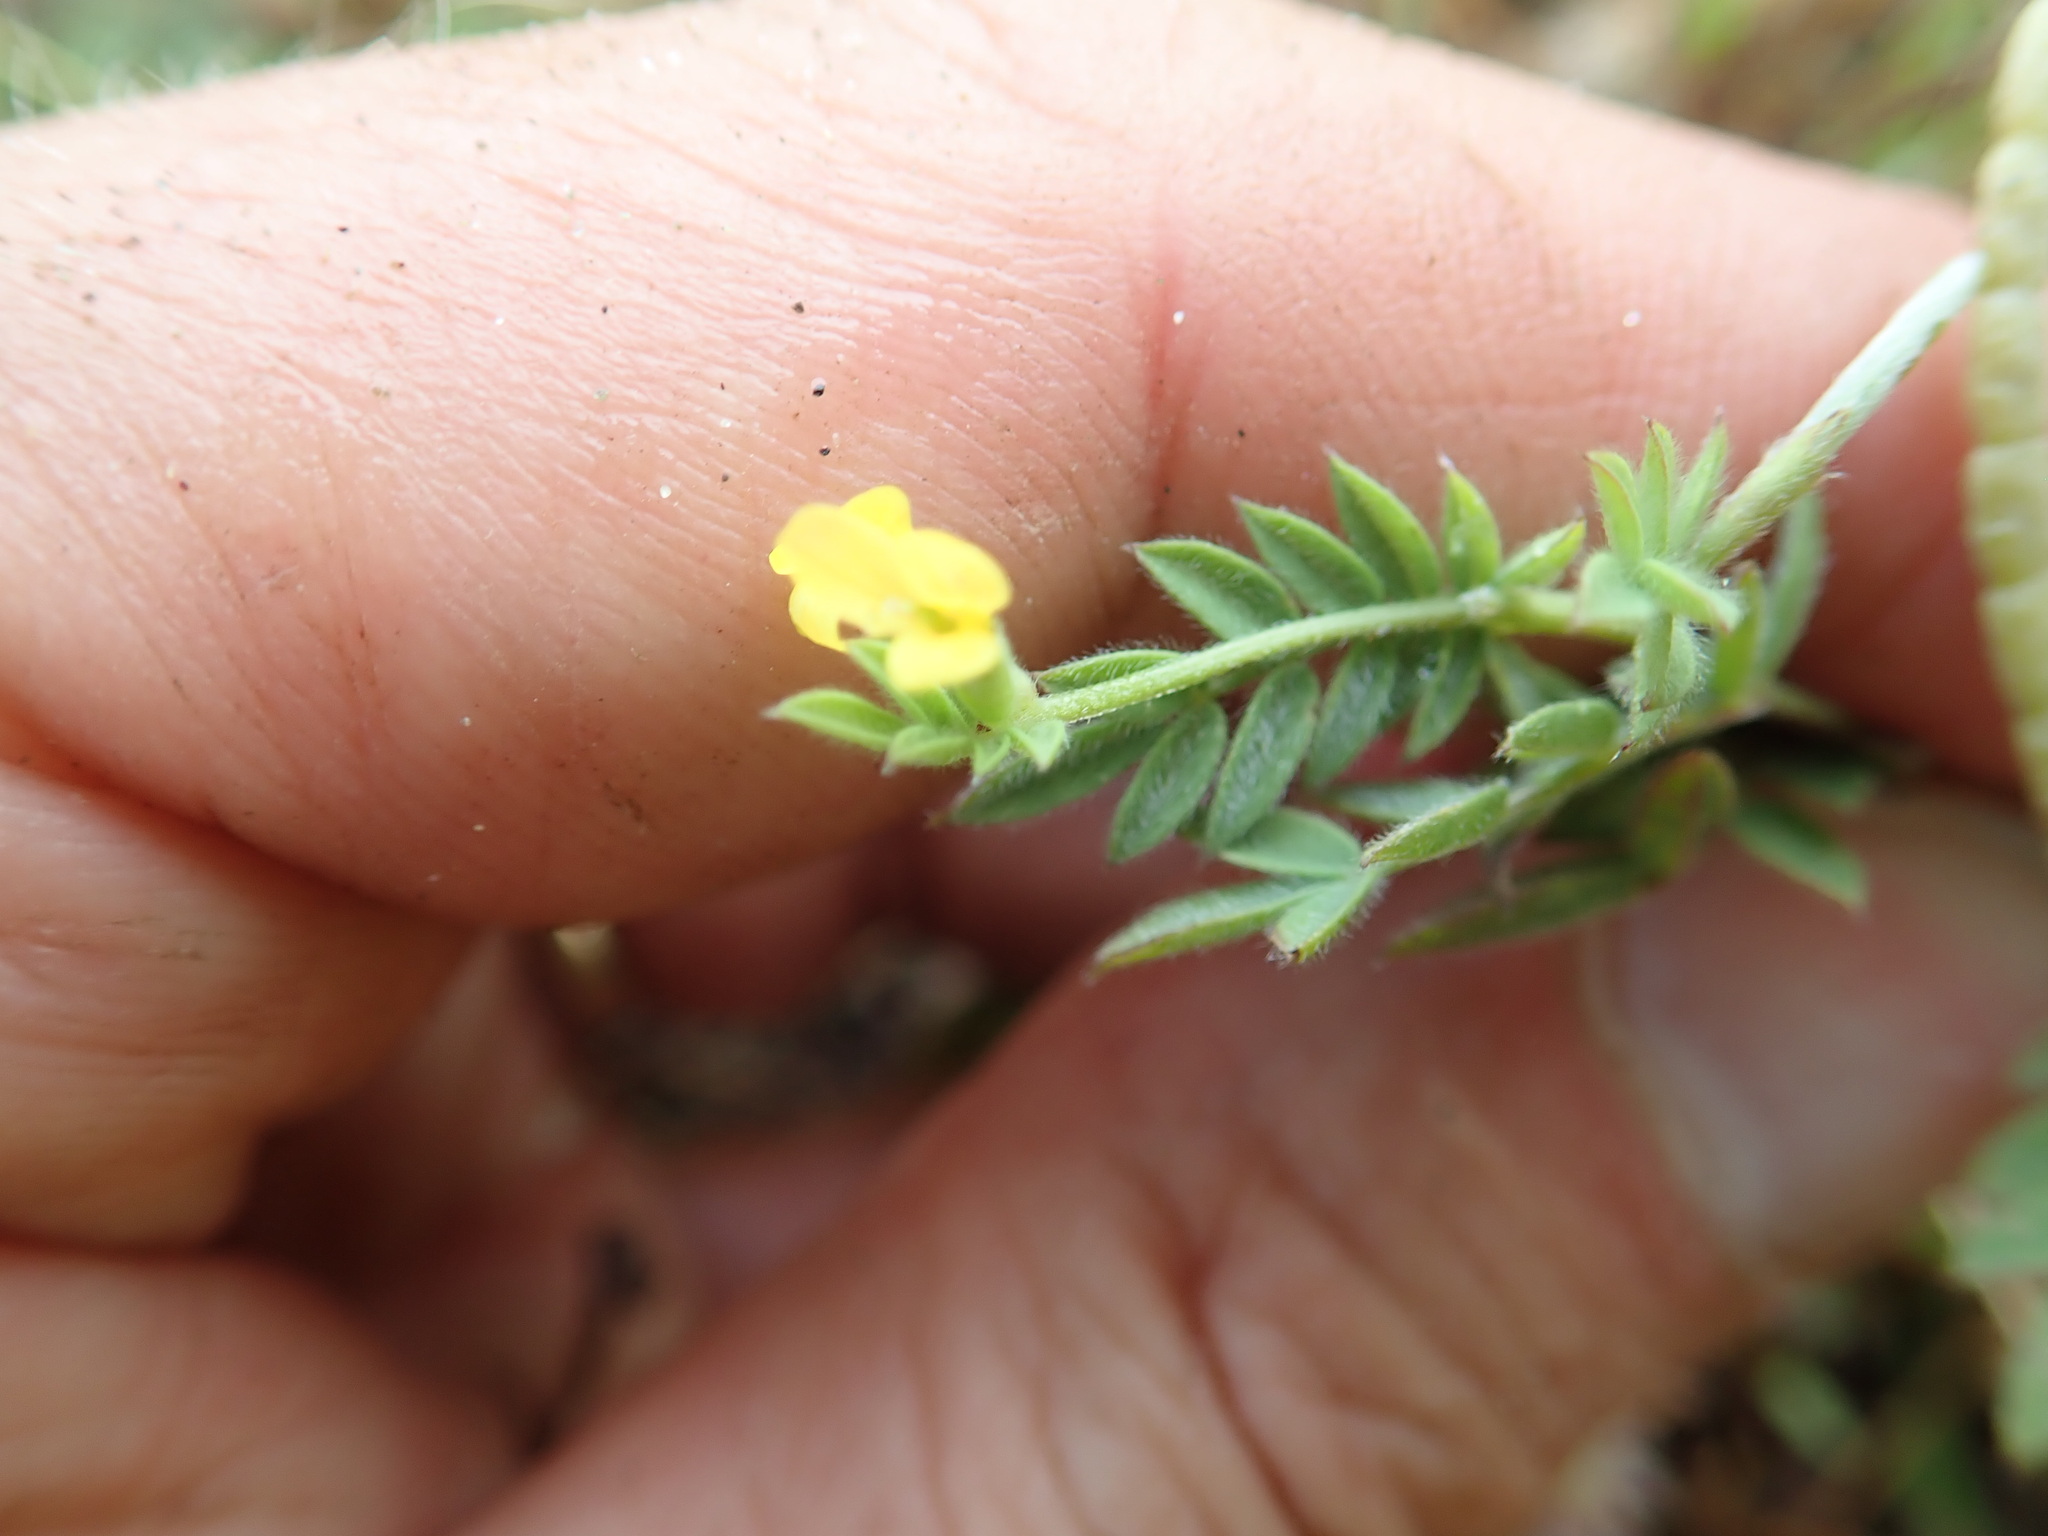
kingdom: Plantae
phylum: Tracheophyta
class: Magnoliopsida
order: Fabales
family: Fabaceae
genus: Ornithopus
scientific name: Ornithopus compressus
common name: Yellow serradella
